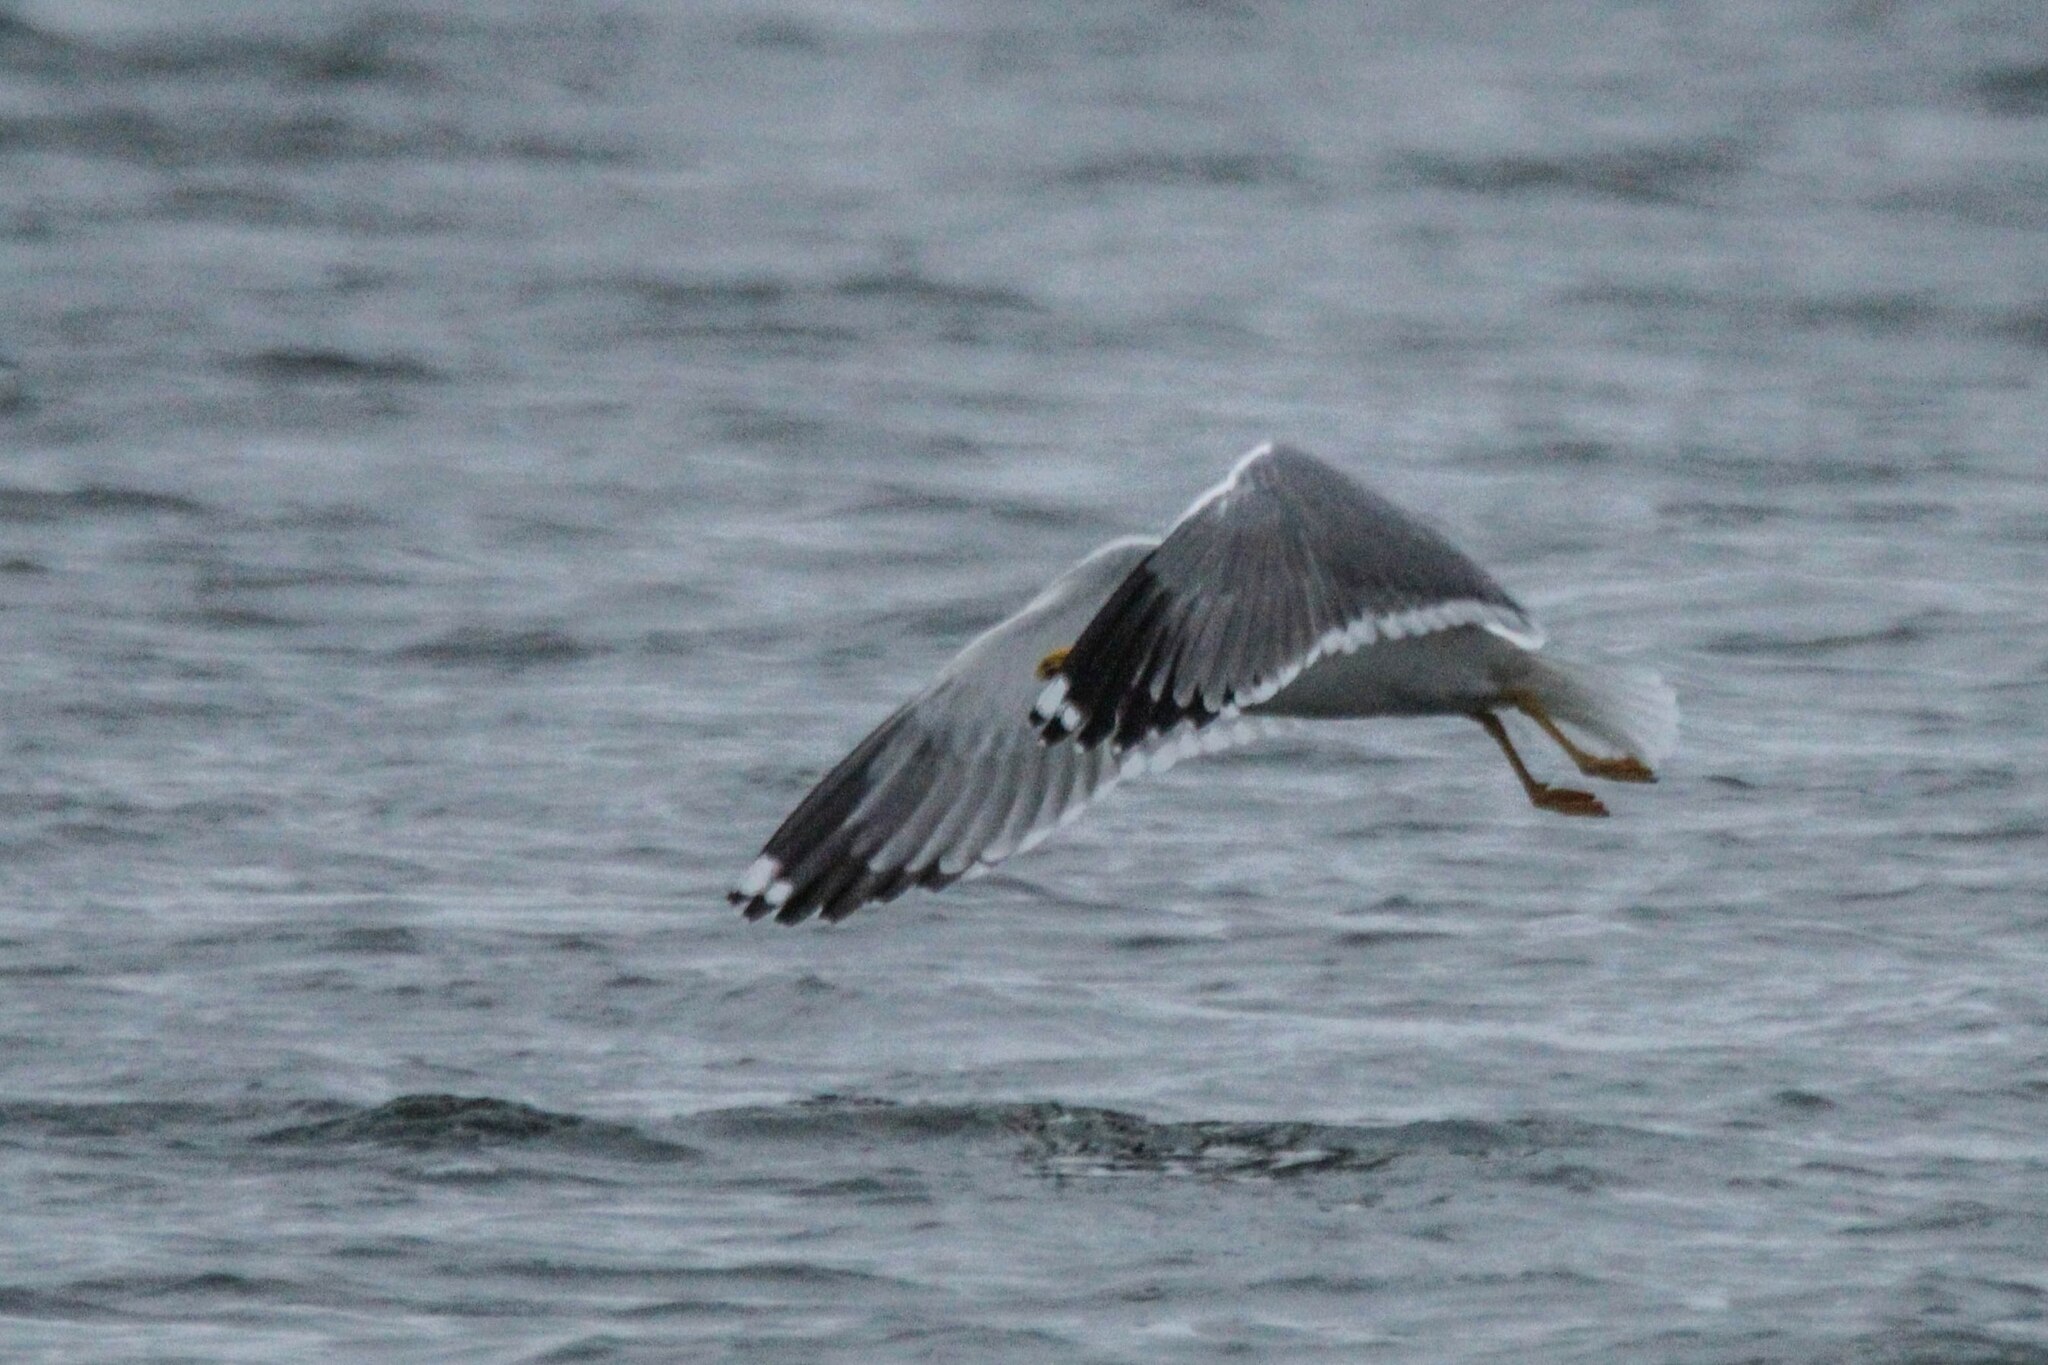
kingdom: Animalia
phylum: Chordata
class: Aves
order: Charadriiformes
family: Laridae
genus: Larus
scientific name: Larus fuscus
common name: Lesser black-backed gull
